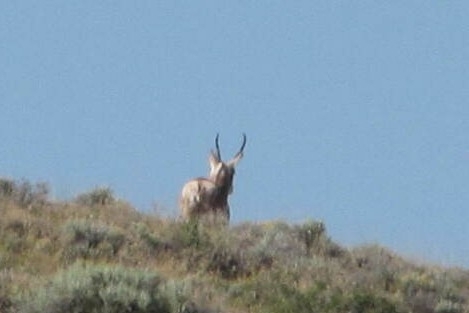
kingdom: Animalia
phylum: Chordata
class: Mammalia
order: Artiodactyla
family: Antilocapridae
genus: Antilocapra
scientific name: Antilocapra americana
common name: Pronghorn
